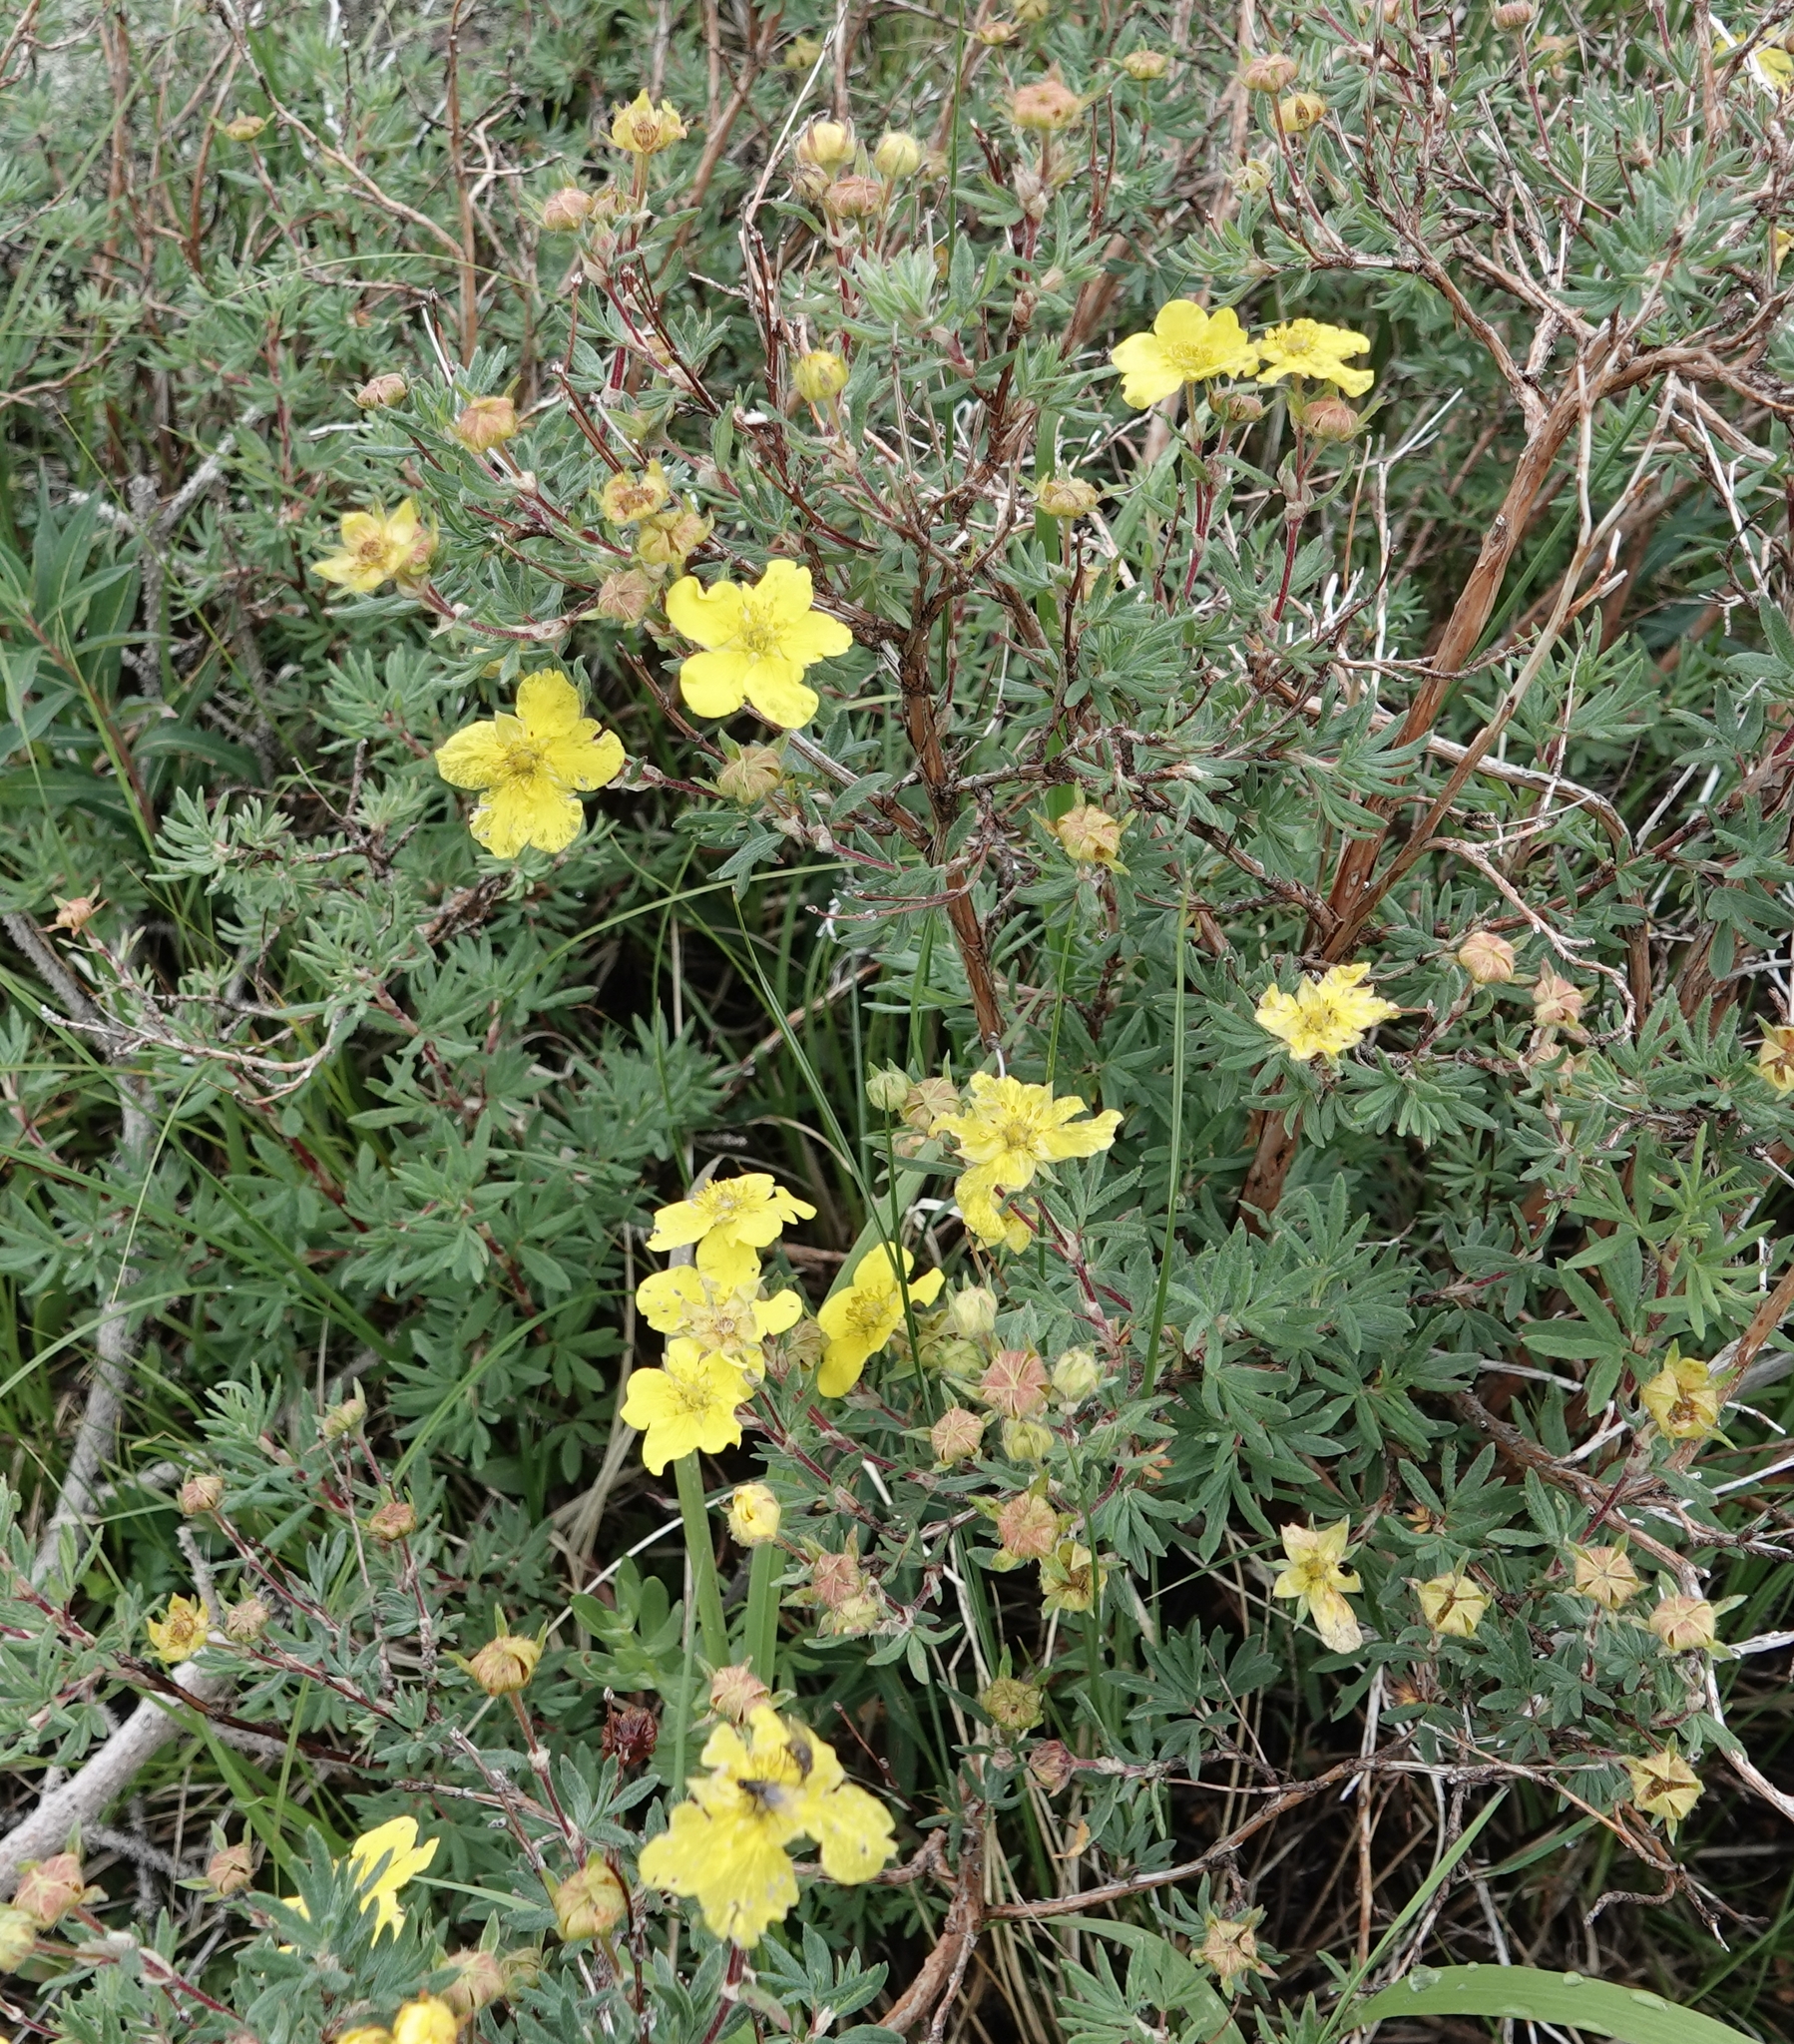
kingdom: Plantae
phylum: Tracheophyta
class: Magnoliopsida
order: Rosales
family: Rosaceae
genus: Dasiphora
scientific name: Dasiphora fruticosa
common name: Shrubby cinquefoil
